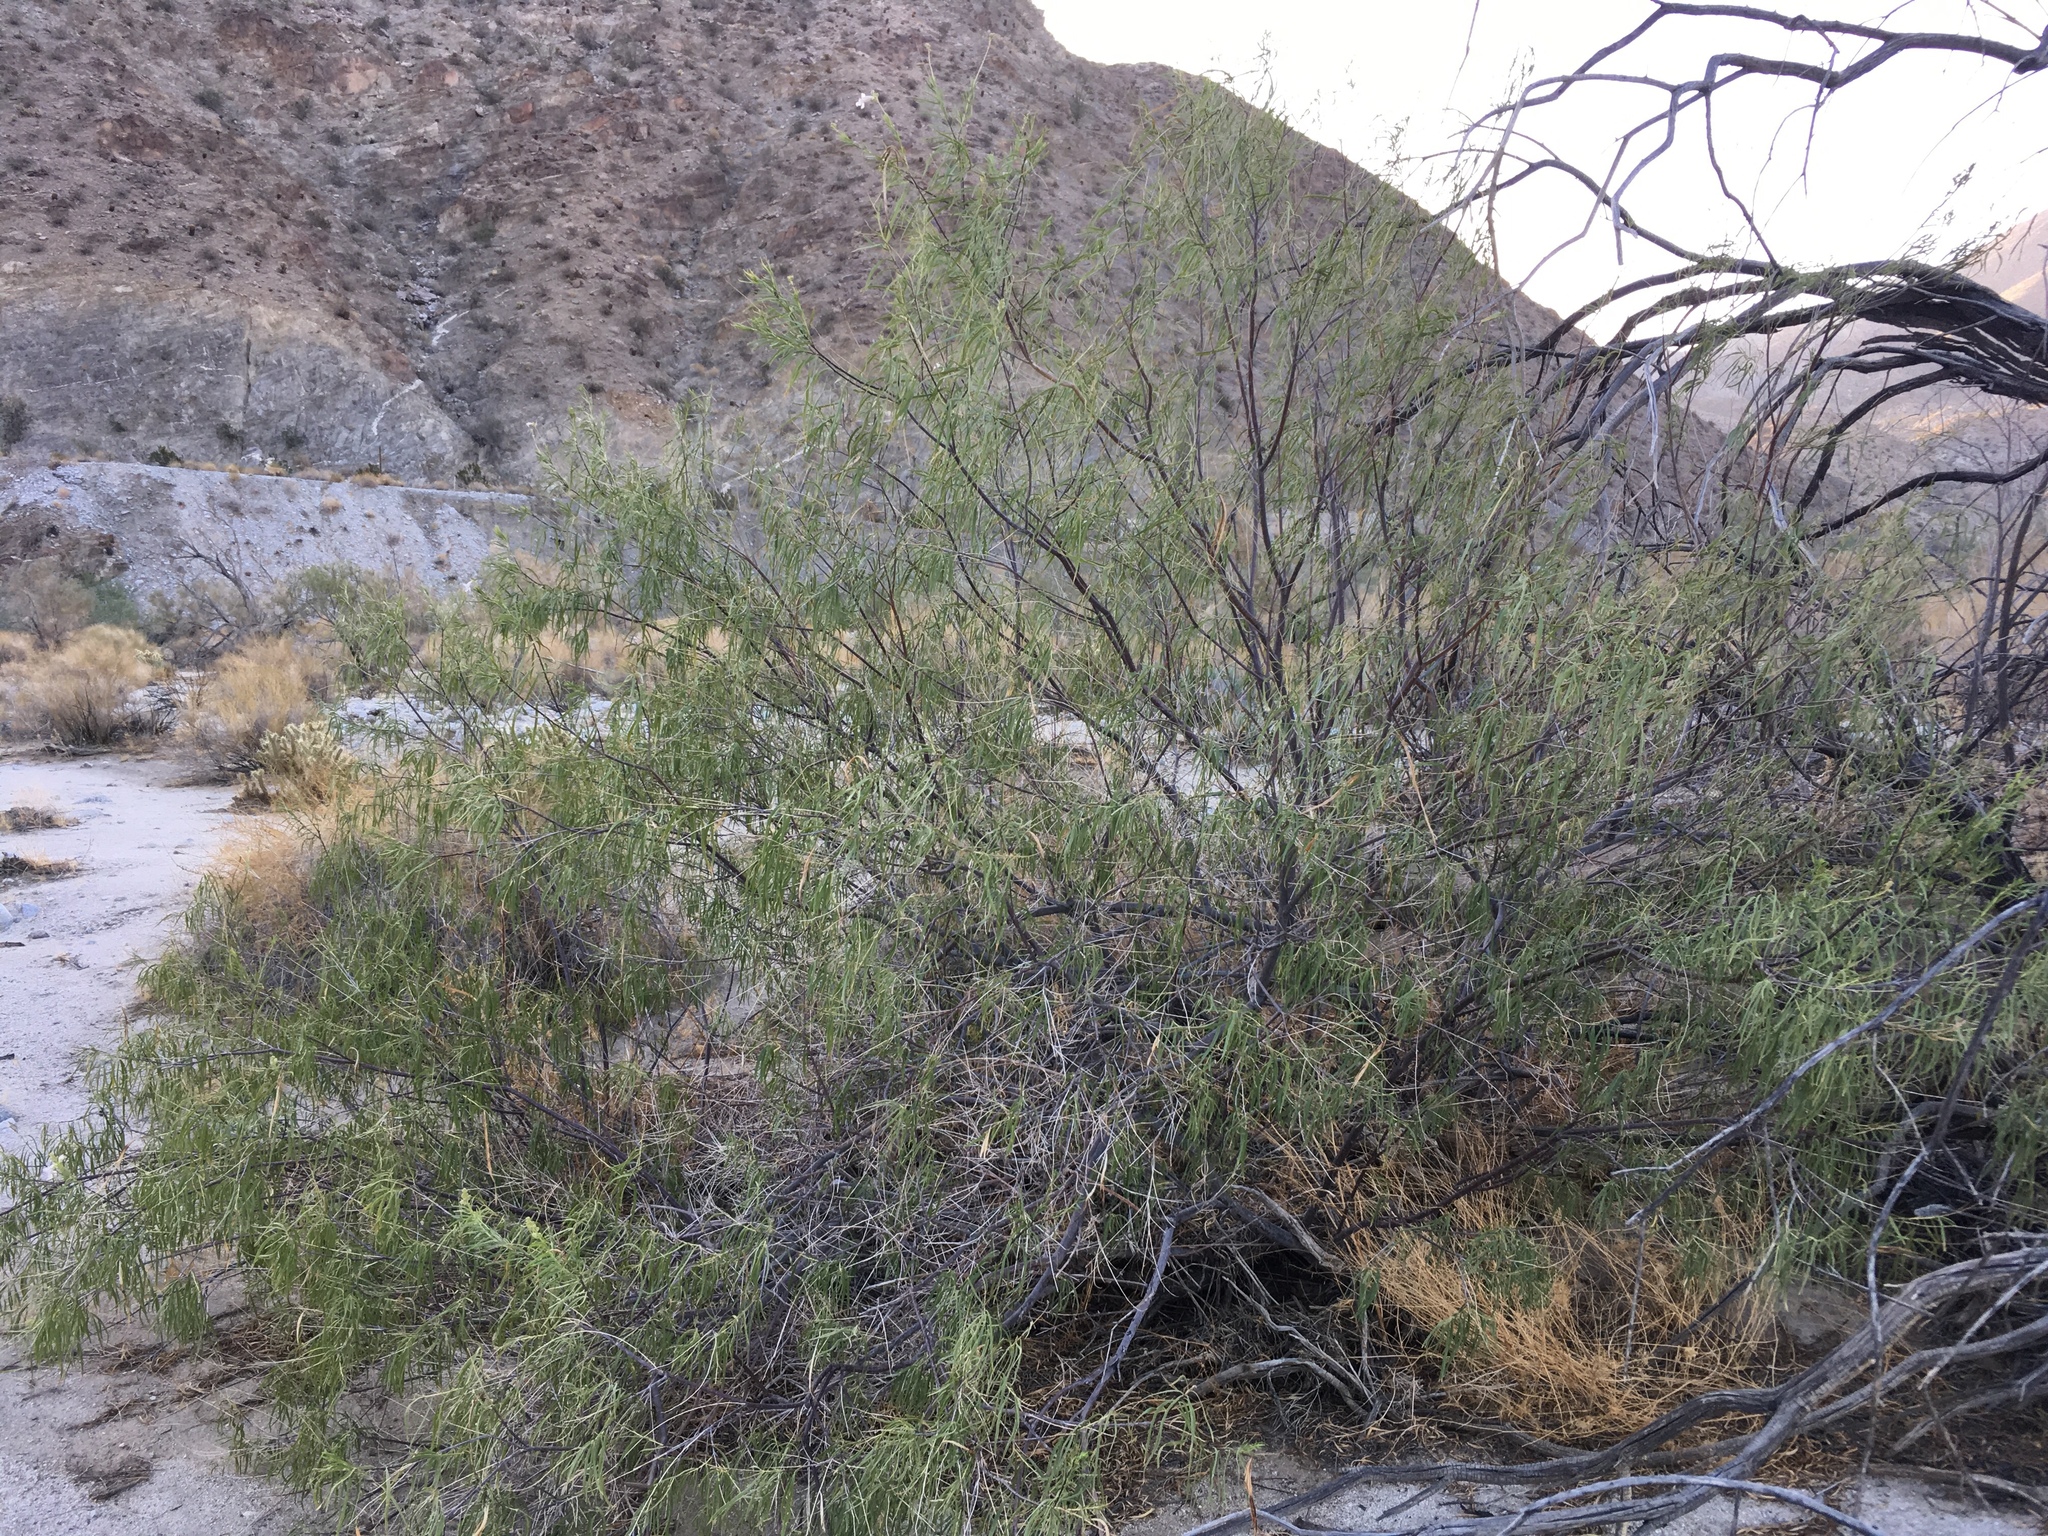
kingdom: Plantae
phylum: Tracheophyta
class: Magnoliopsida
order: Lamiales
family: Bignoniaceae
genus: Chilopsis
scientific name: Chilopsis linearis
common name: Desert-willow
